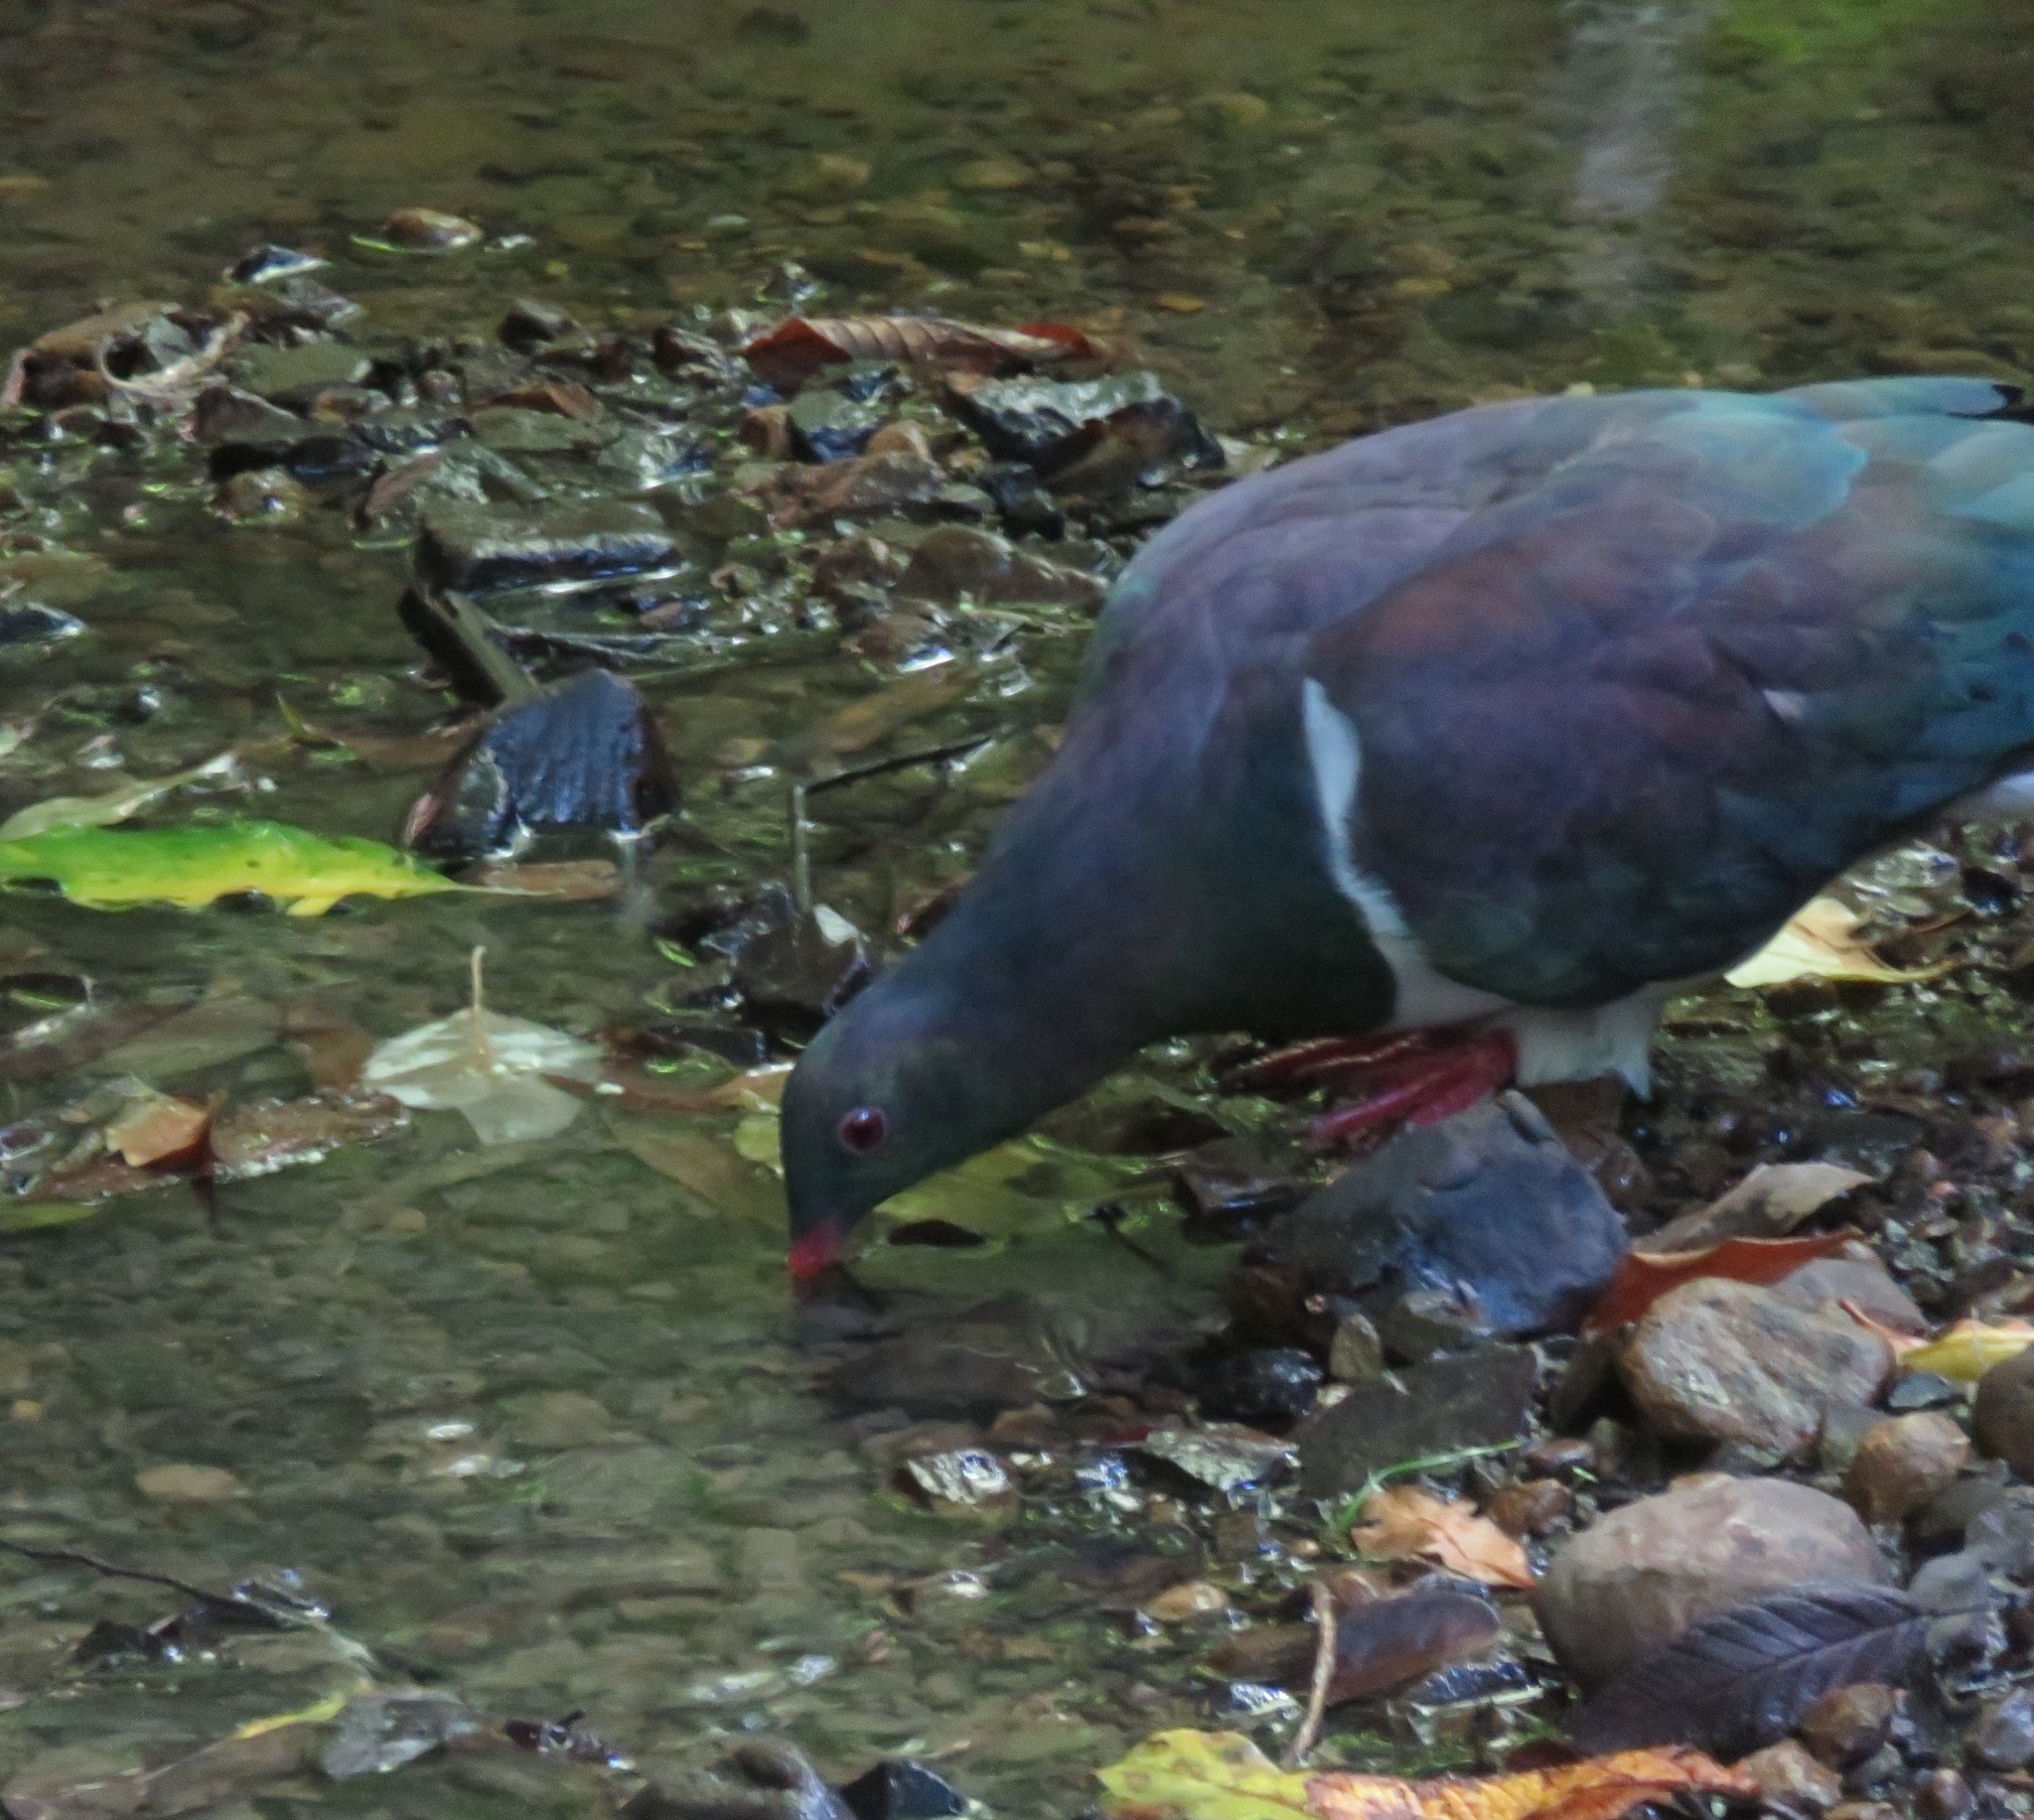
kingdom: Animalia
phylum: Chordata
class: Aves
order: Columbiformes
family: Columbidae
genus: Hemiphaga
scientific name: Hemiphaga novaeseelandiae
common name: New zealand pigeon
